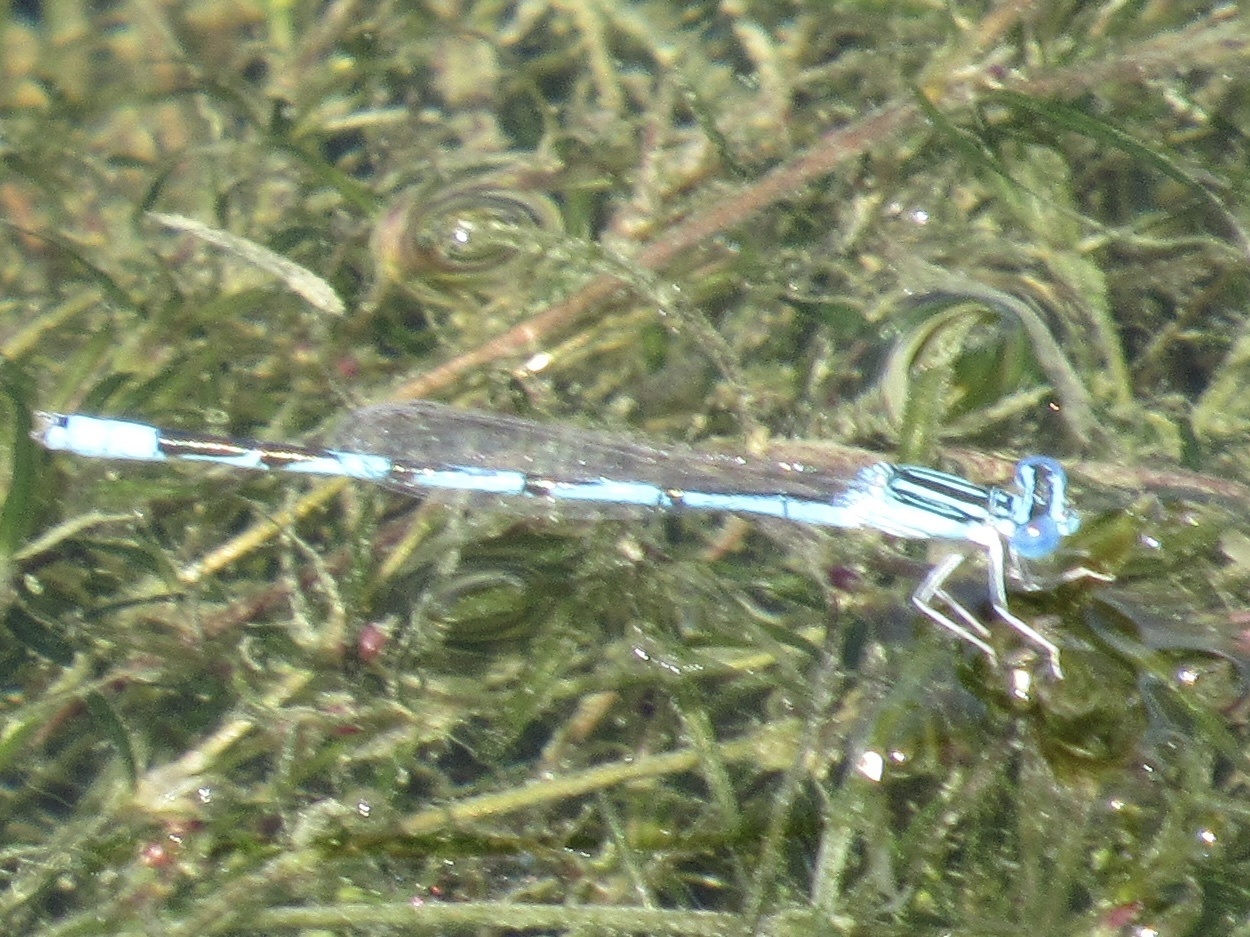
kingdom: Animalia
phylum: Arthropoda
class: Insecta
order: Odonata
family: Coenagrionidae
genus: Enallagma
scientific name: Enallagma basidens
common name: Double-striped bluet
